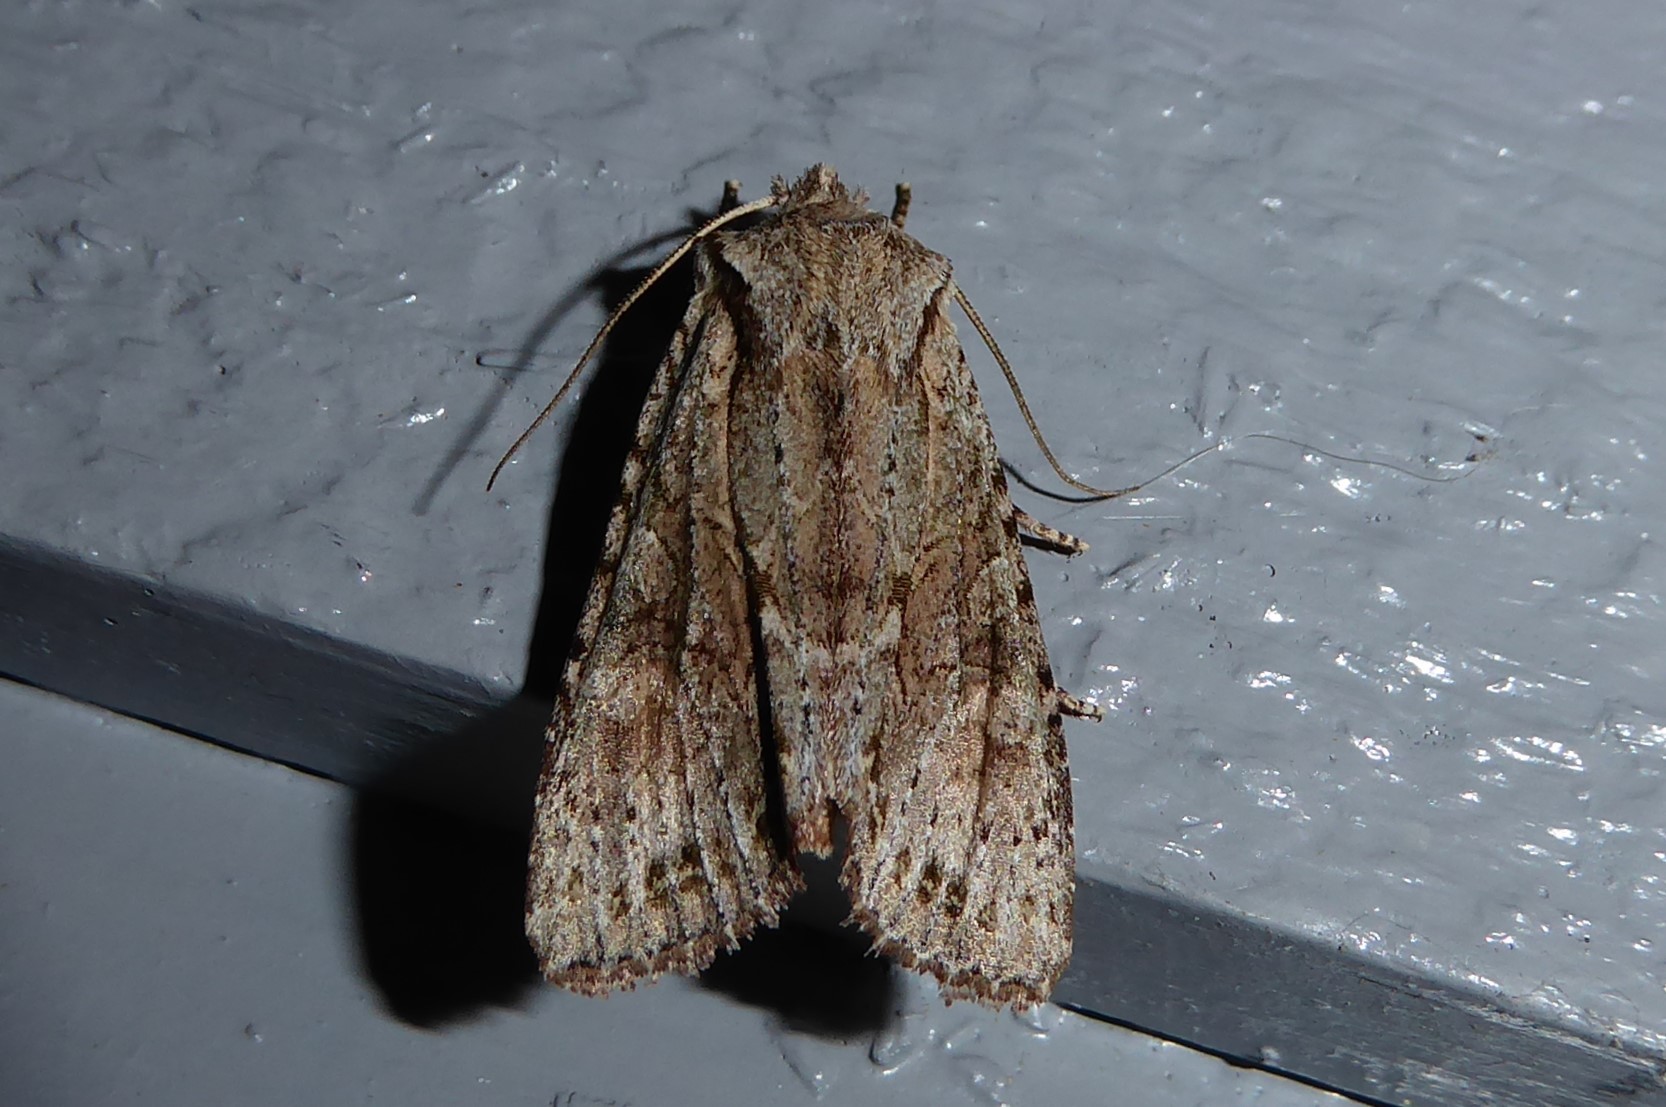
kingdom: Animalia
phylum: Arthropoda
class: Insecta
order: Lepidoptera
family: Noctuidae
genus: Ichneutica
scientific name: Ichneutica mutans
